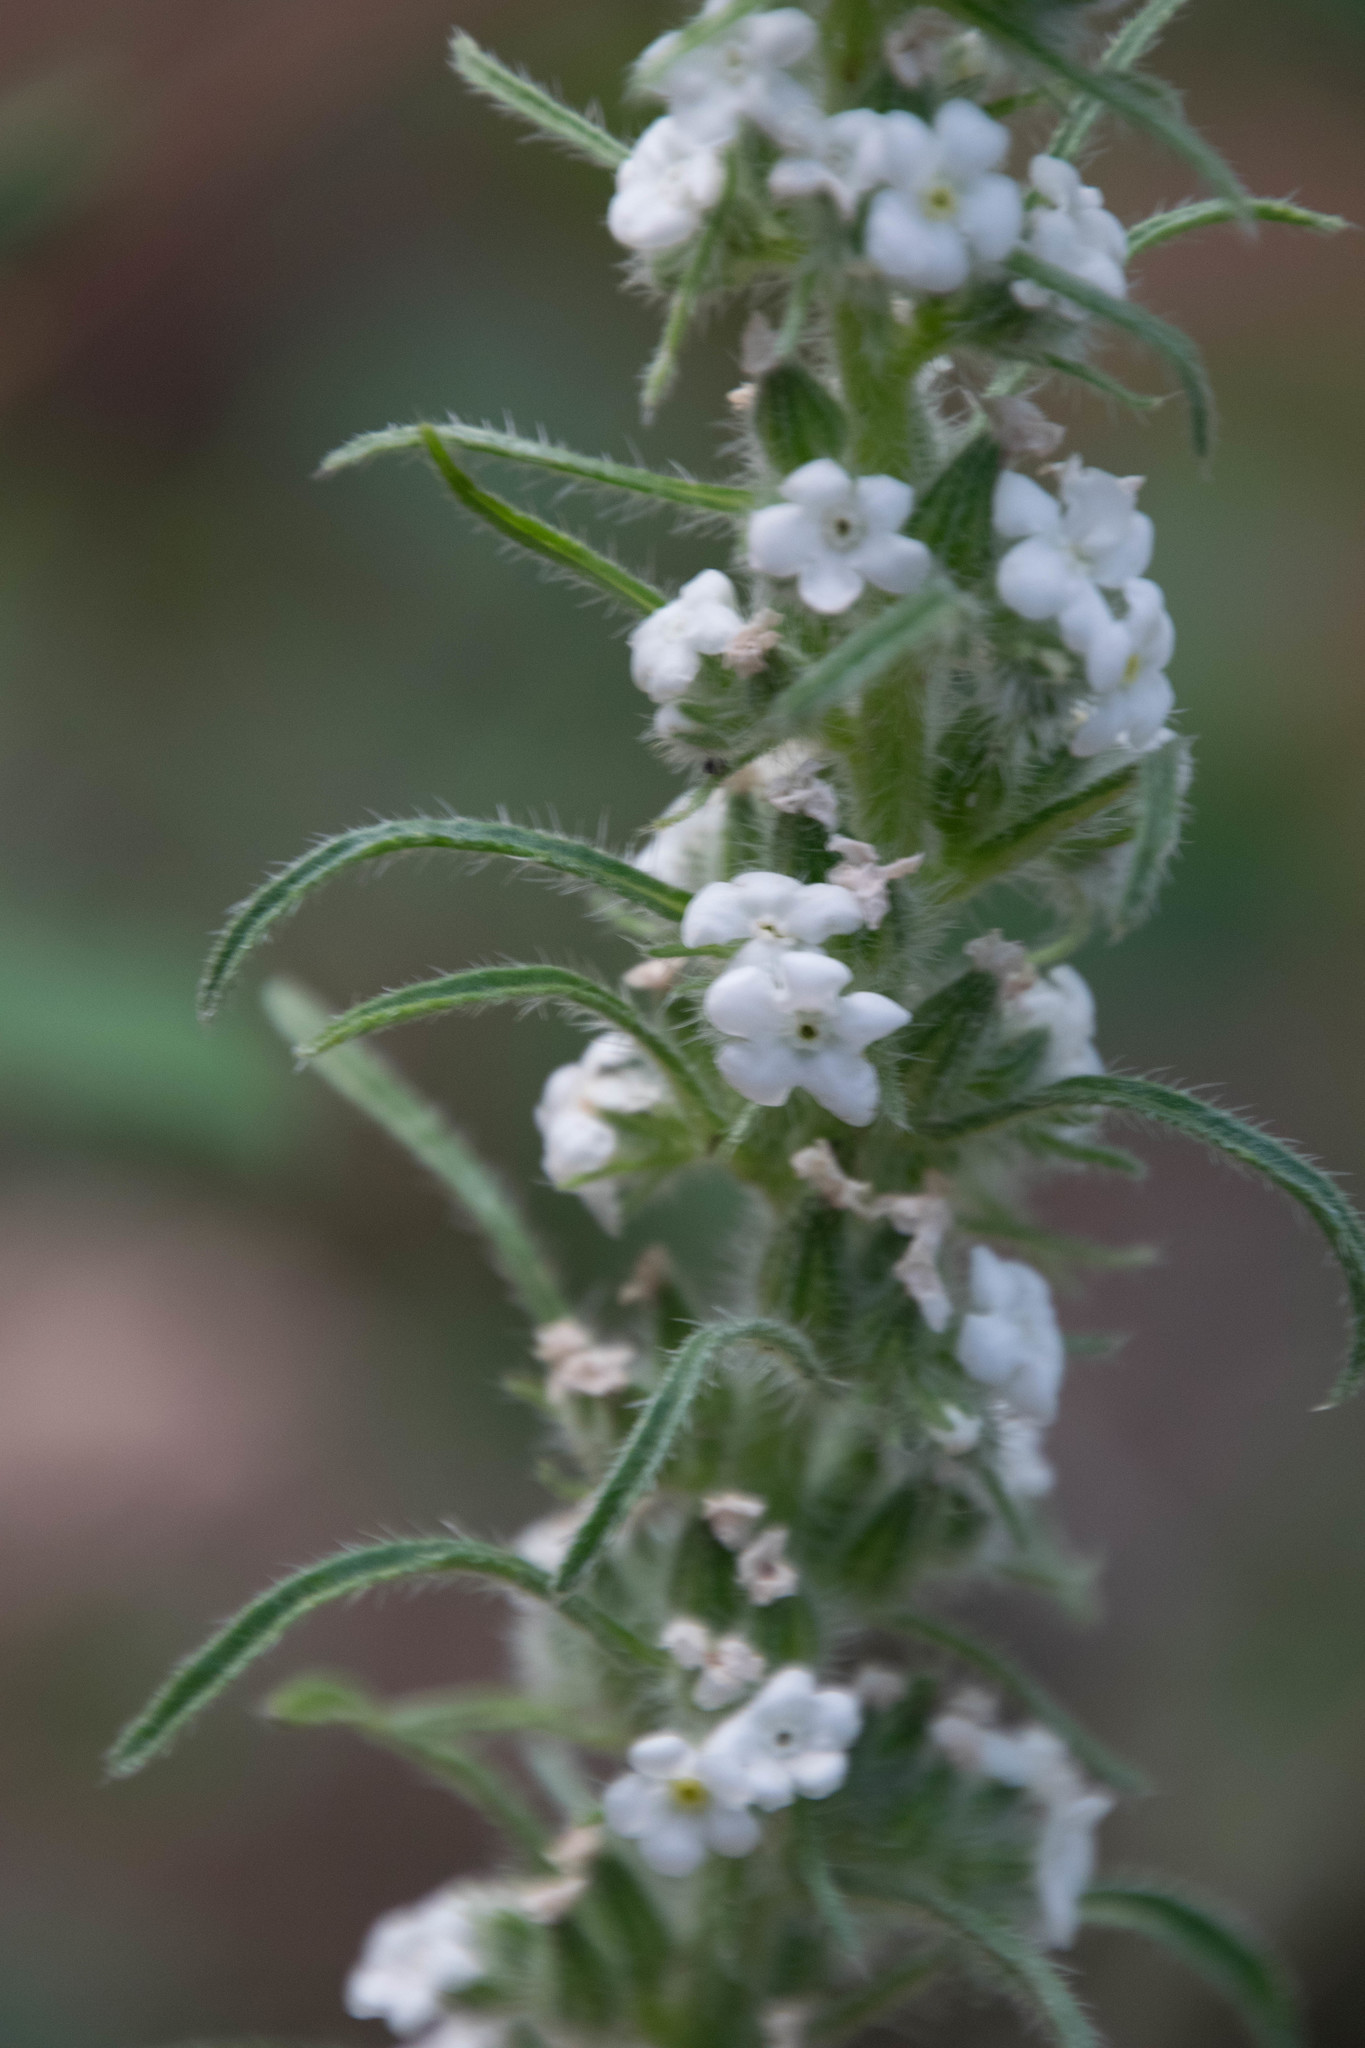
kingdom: Plantae
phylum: Tracheophyta
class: Magnoliopsida
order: Boraginales
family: Boraginaceae
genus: Oreocarya
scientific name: Oreocarya virgata
